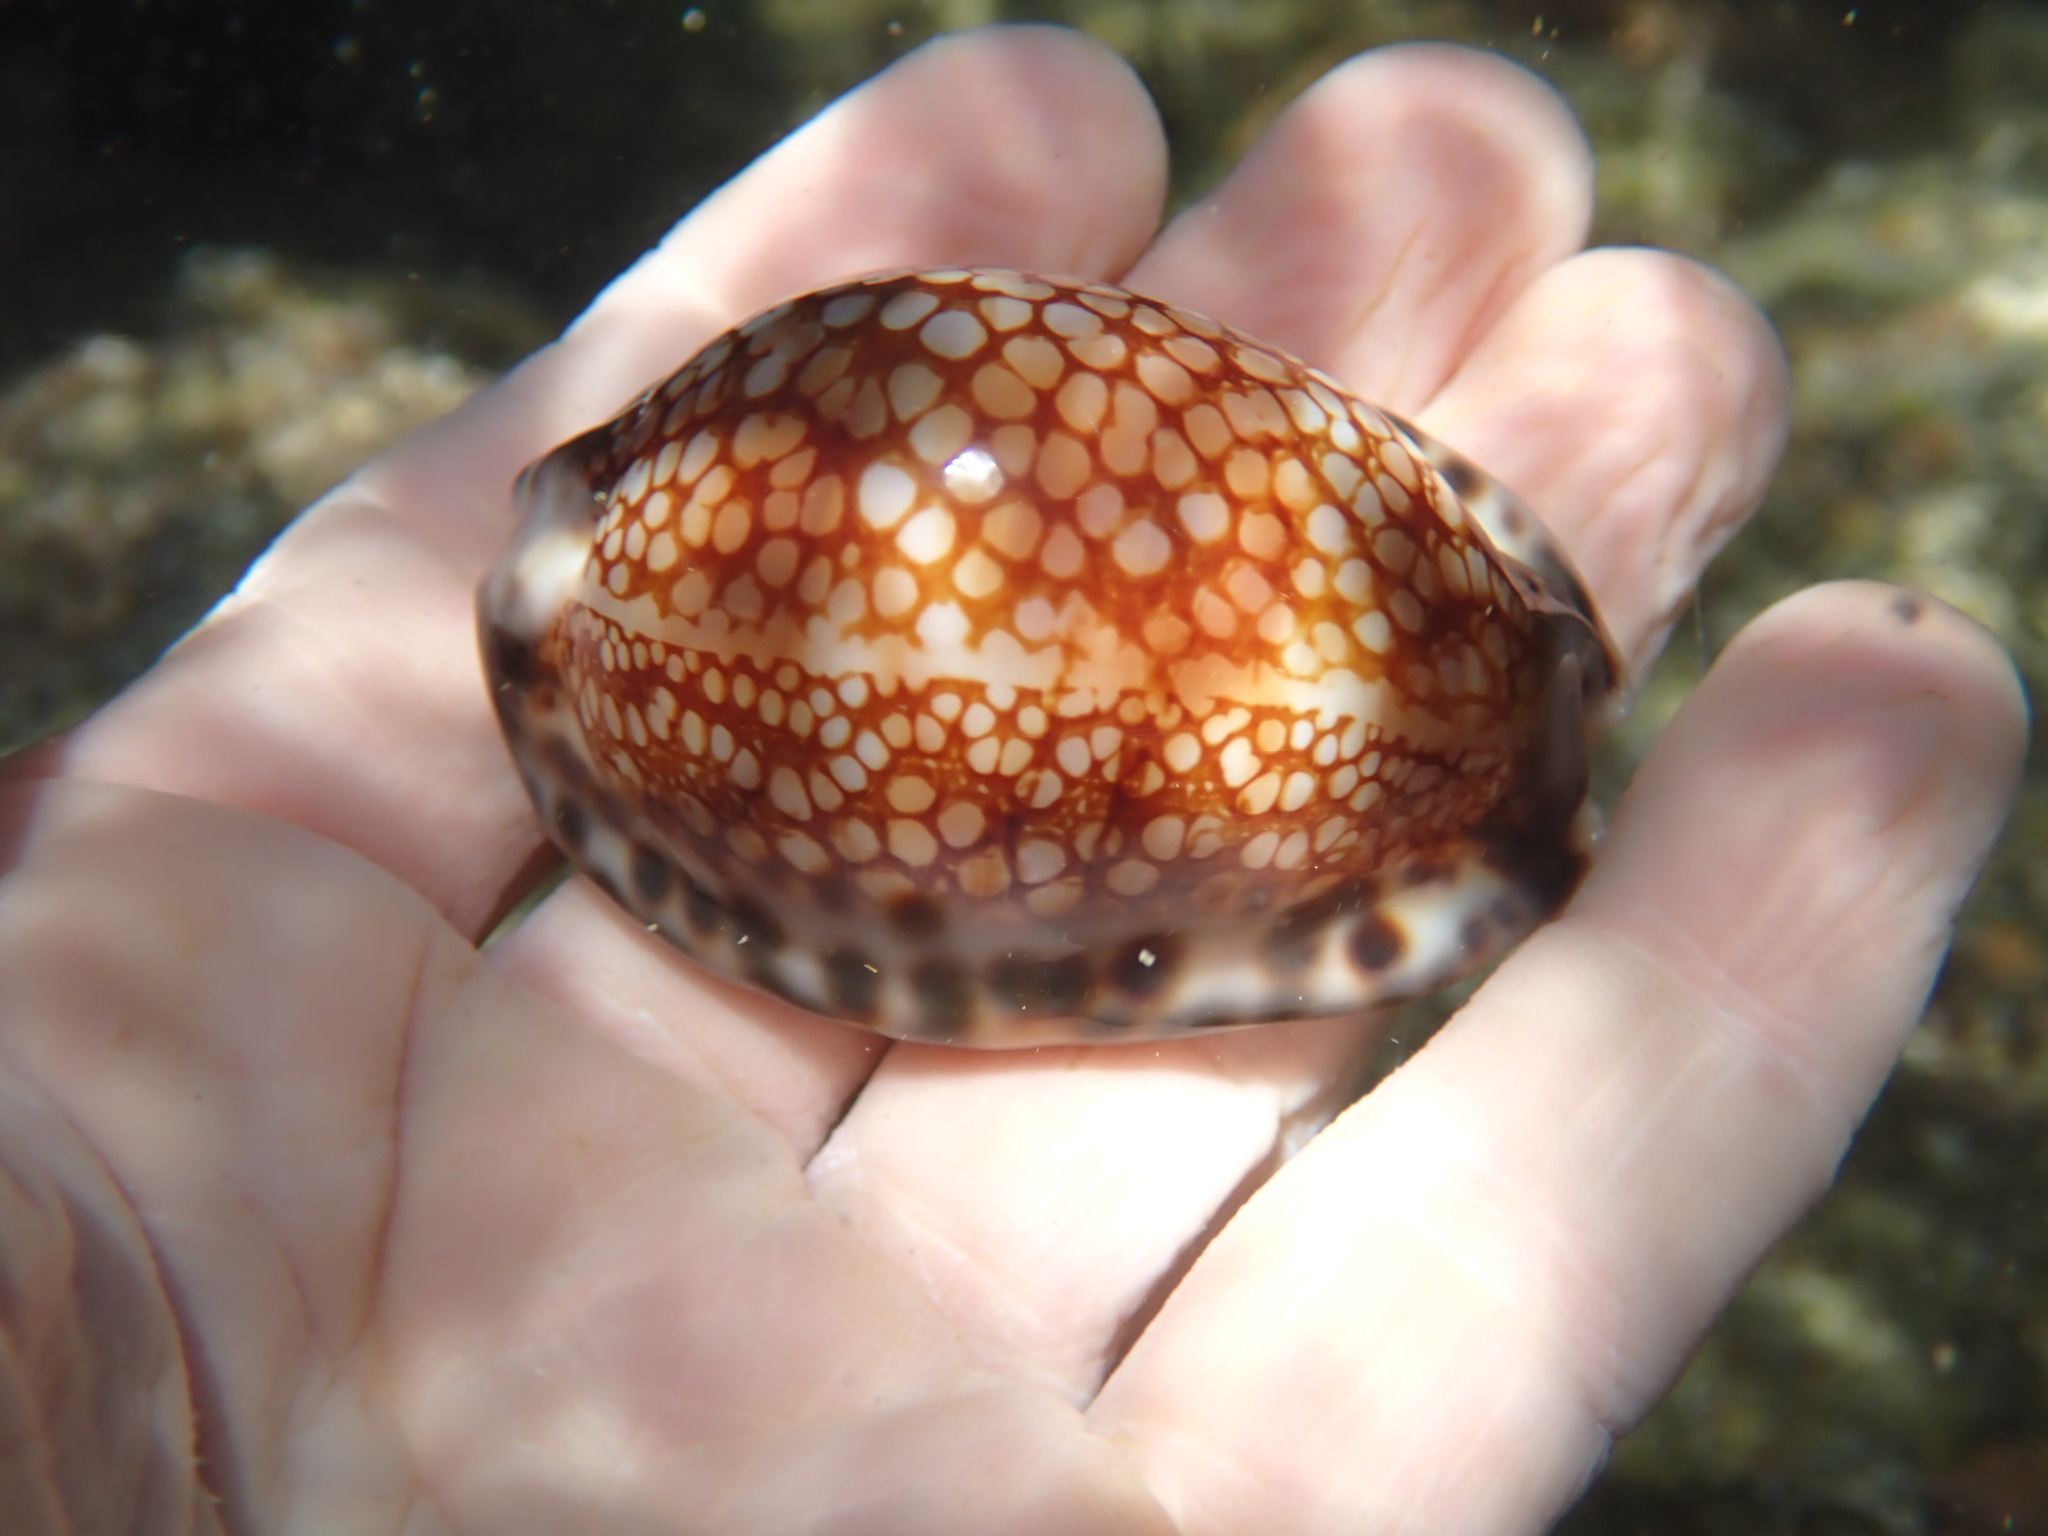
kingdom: Animalia
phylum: Mollusca
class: Gastropoda
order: Littorinimorpha
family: Cypraeidae
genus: Mauritia
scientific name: Mauritia maculifera
